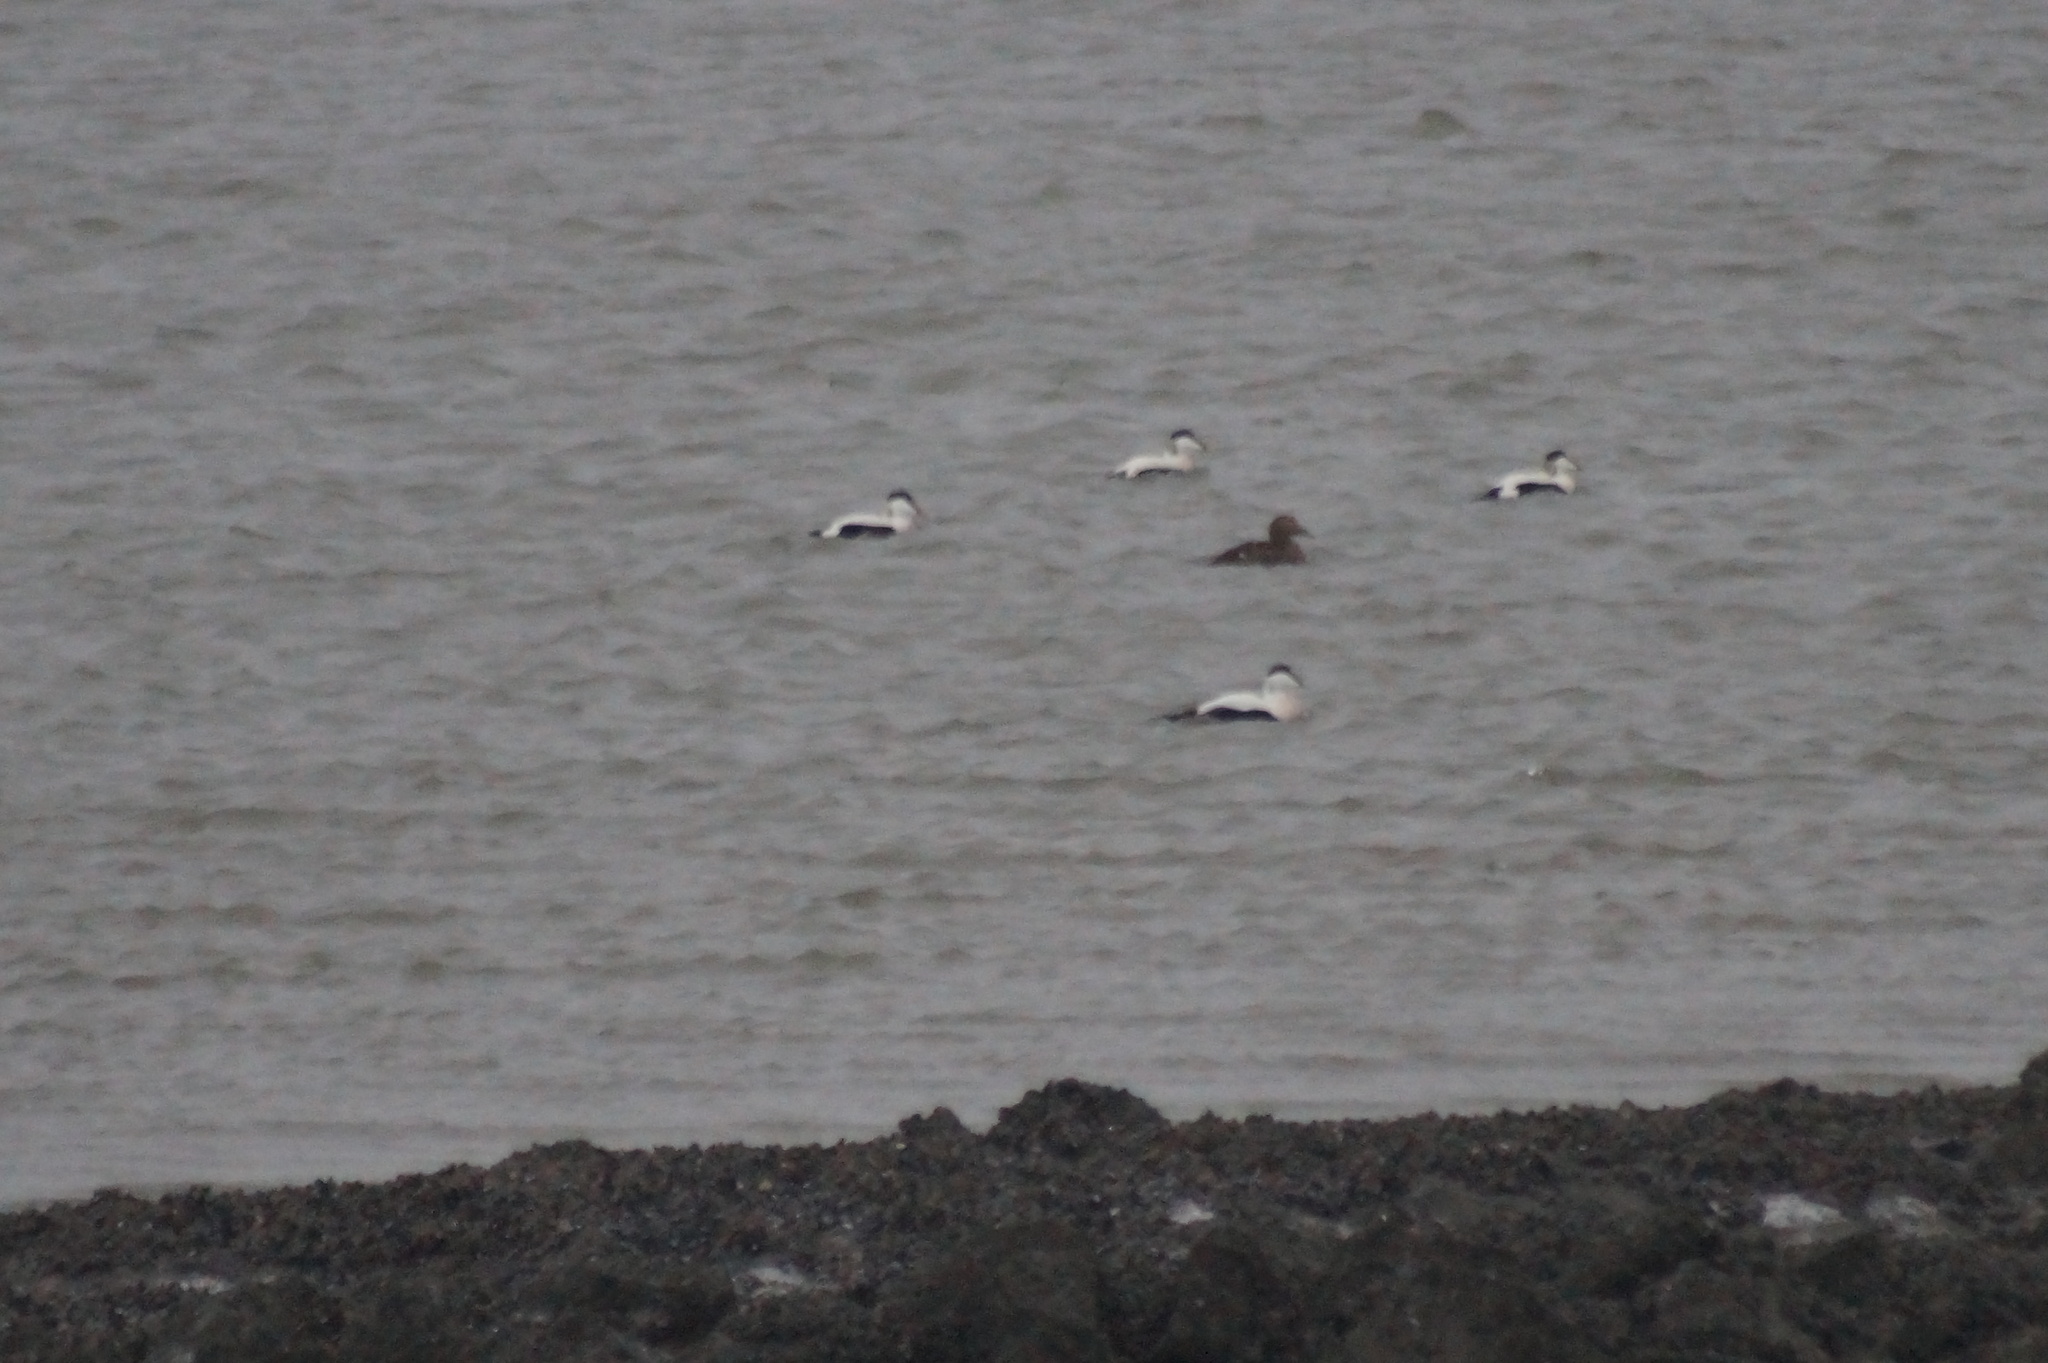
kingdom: Animalia
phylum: Chordata
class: Aves
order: Anseriformes
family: Anatidae
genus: Somateria
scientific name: Somateria mollissima
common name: Common eider
